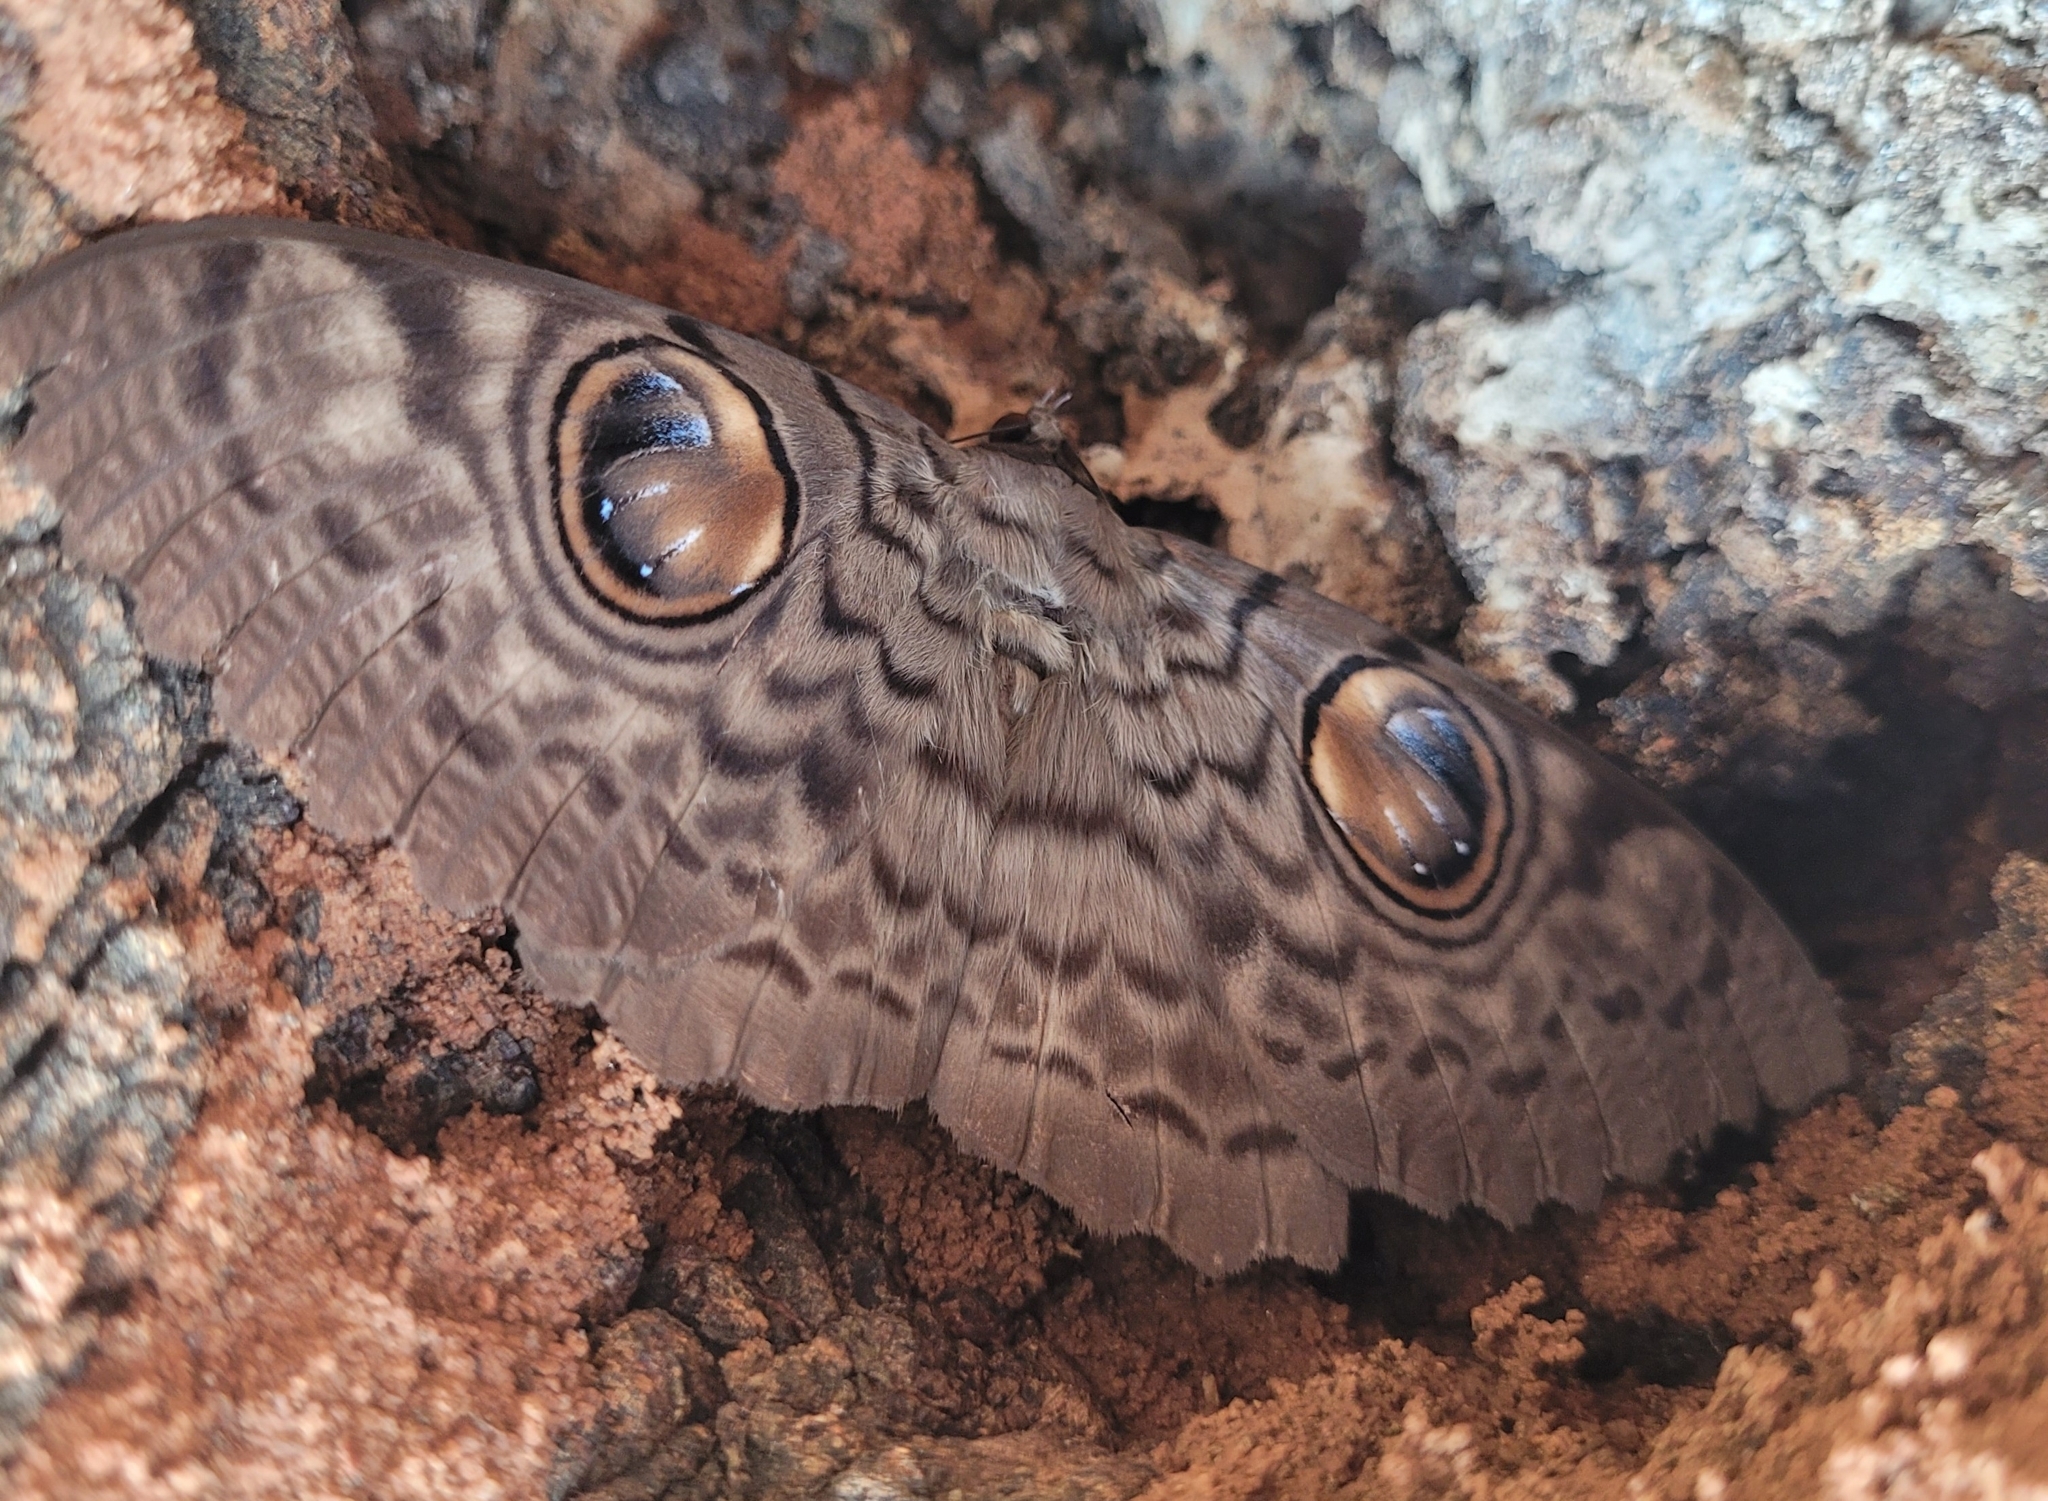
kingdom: Animalia
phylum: Arthropoda
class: Insecta
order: Lepidoptera
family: Erebidae
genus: Erebus
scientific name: Erebus macrops
